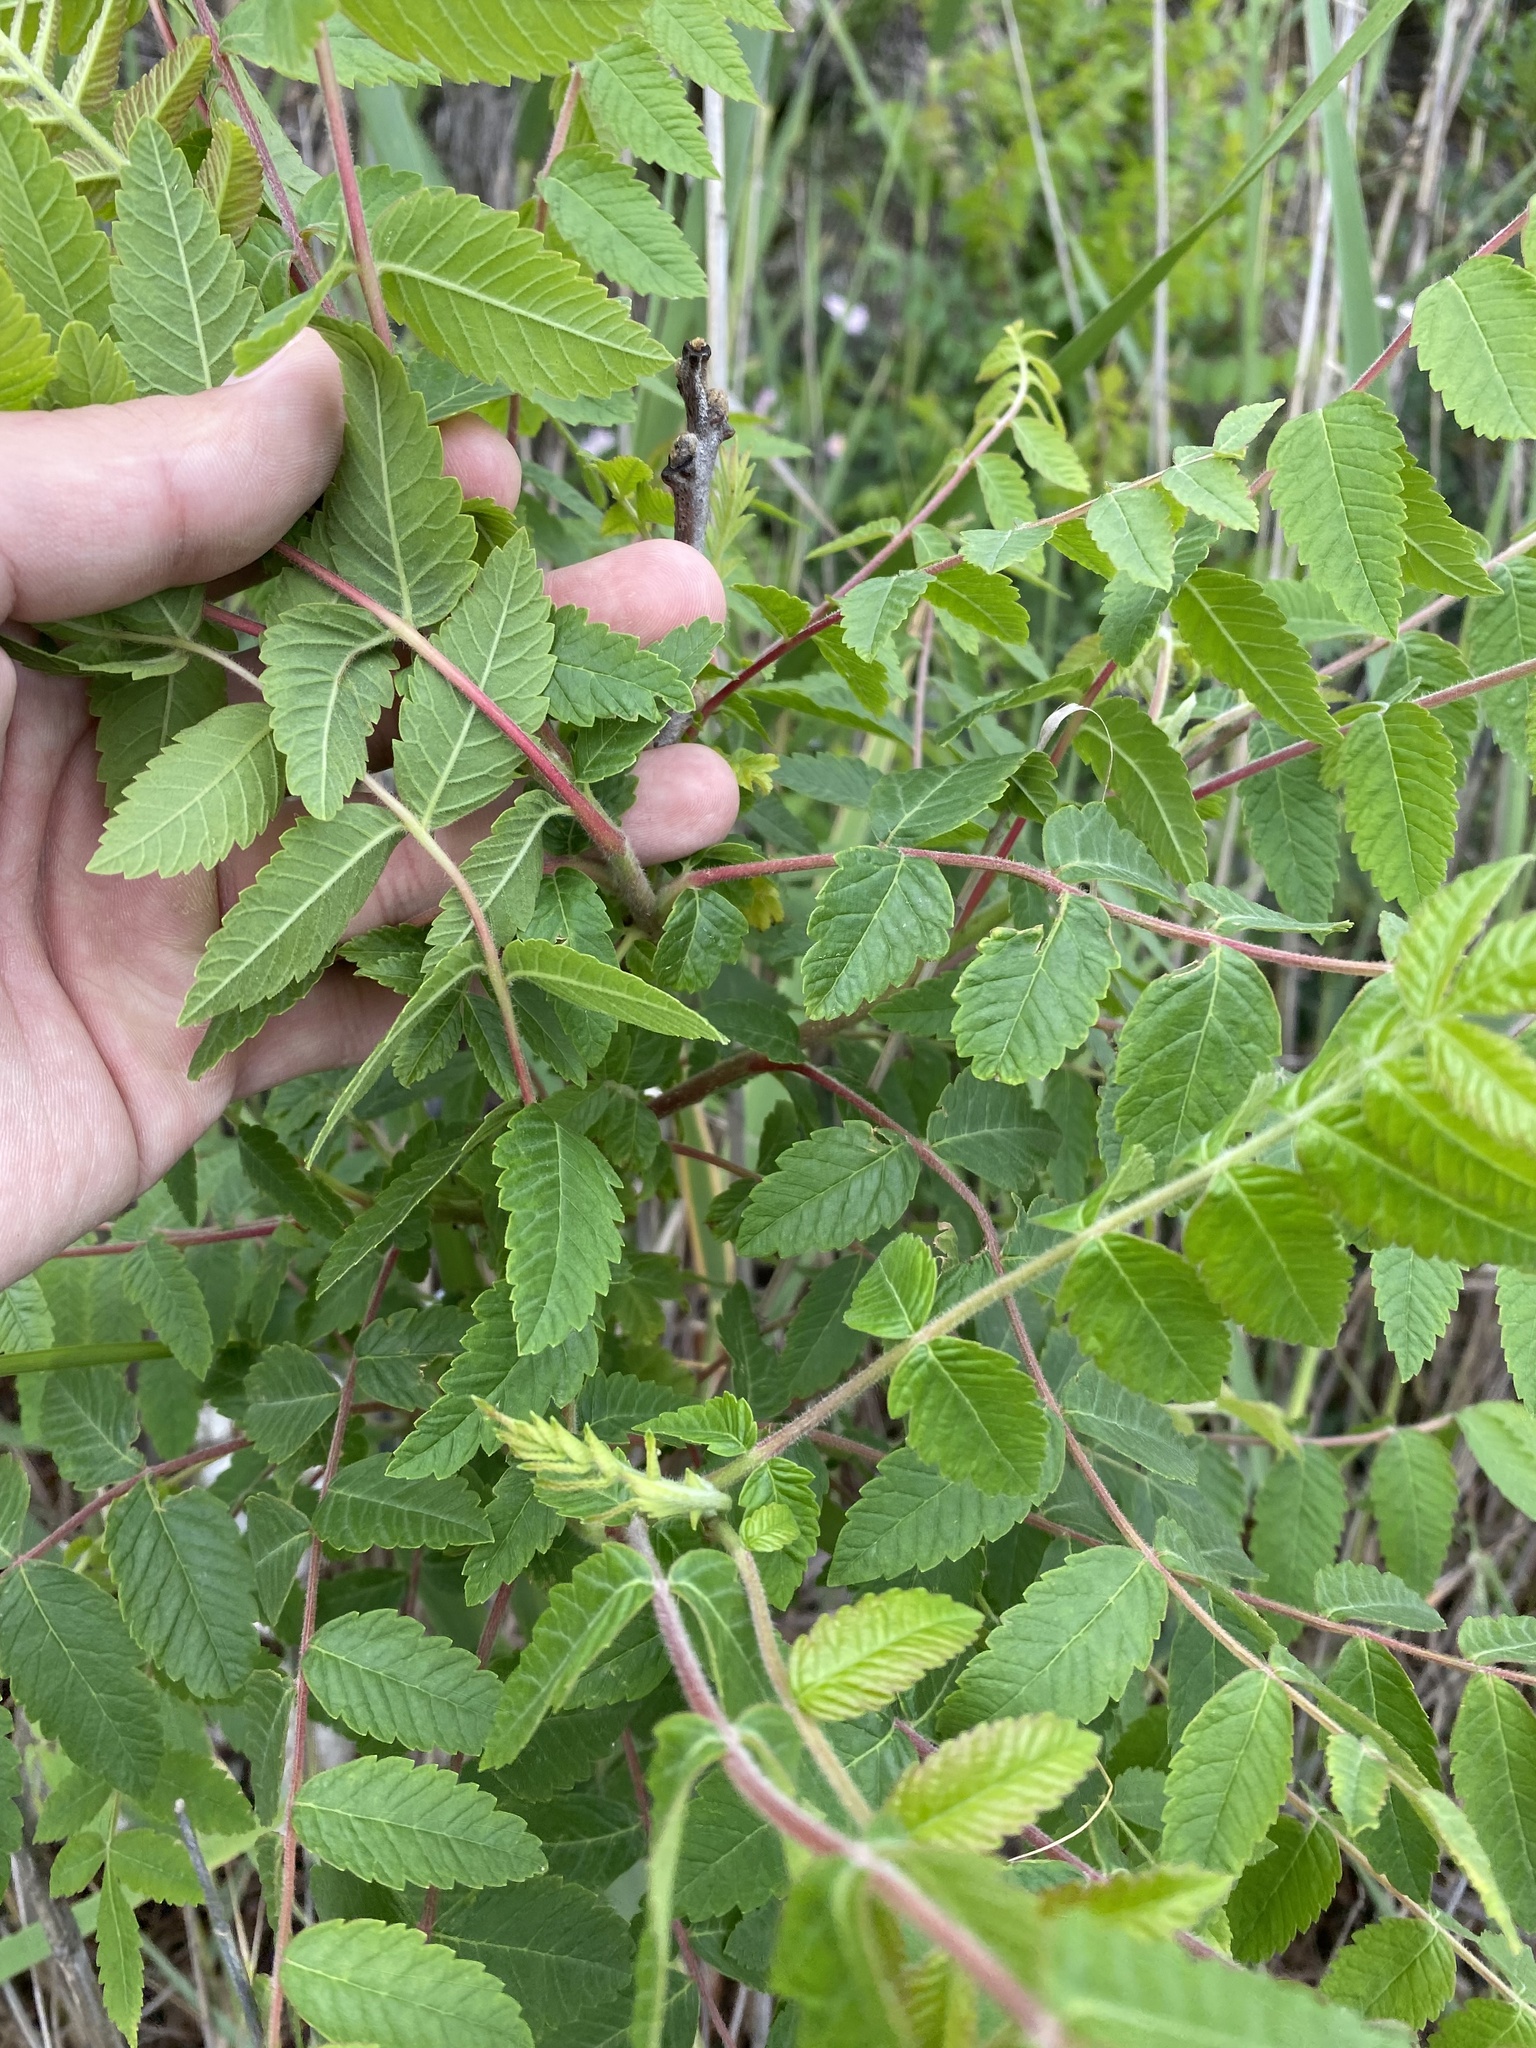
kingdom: Plantae
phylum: Tracheophyta
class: Magnoliopsida
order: Sapindales
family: Anacardiaceae
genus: Rhus
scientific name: Rhus coriaria
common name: Tanner's sumach
